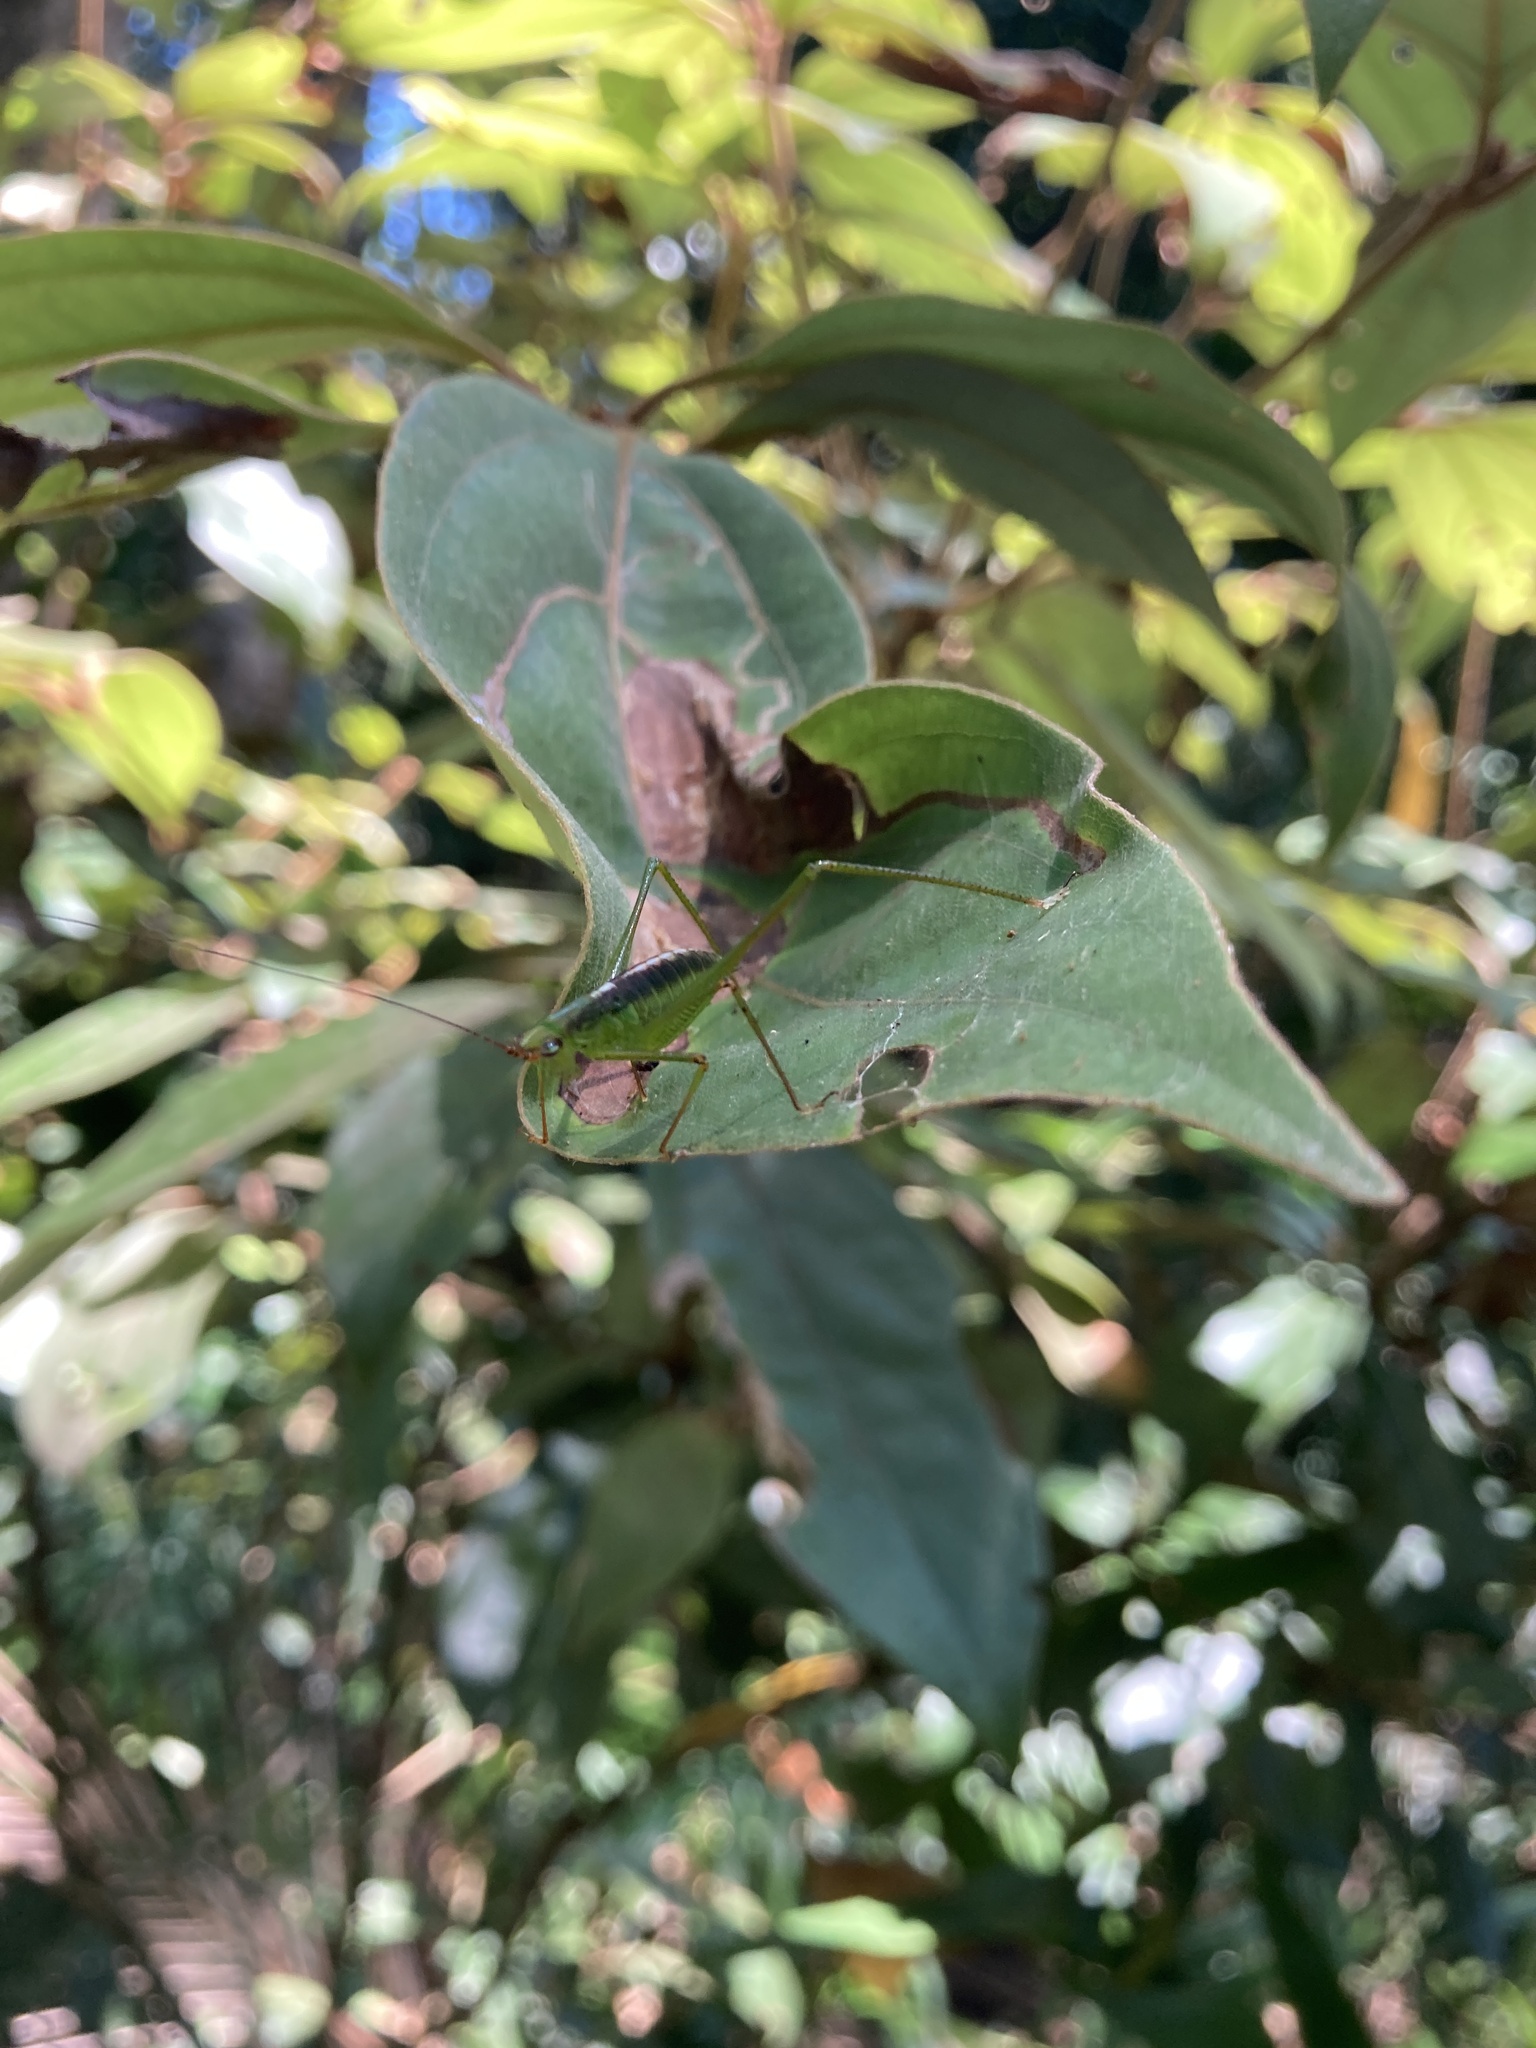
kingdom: Animalia
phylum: Arthropoda
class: Insecta
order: Orthoptera
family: Tettigoniidae
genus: Leucopodoptera
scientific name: Leucopodoptera eumundii
